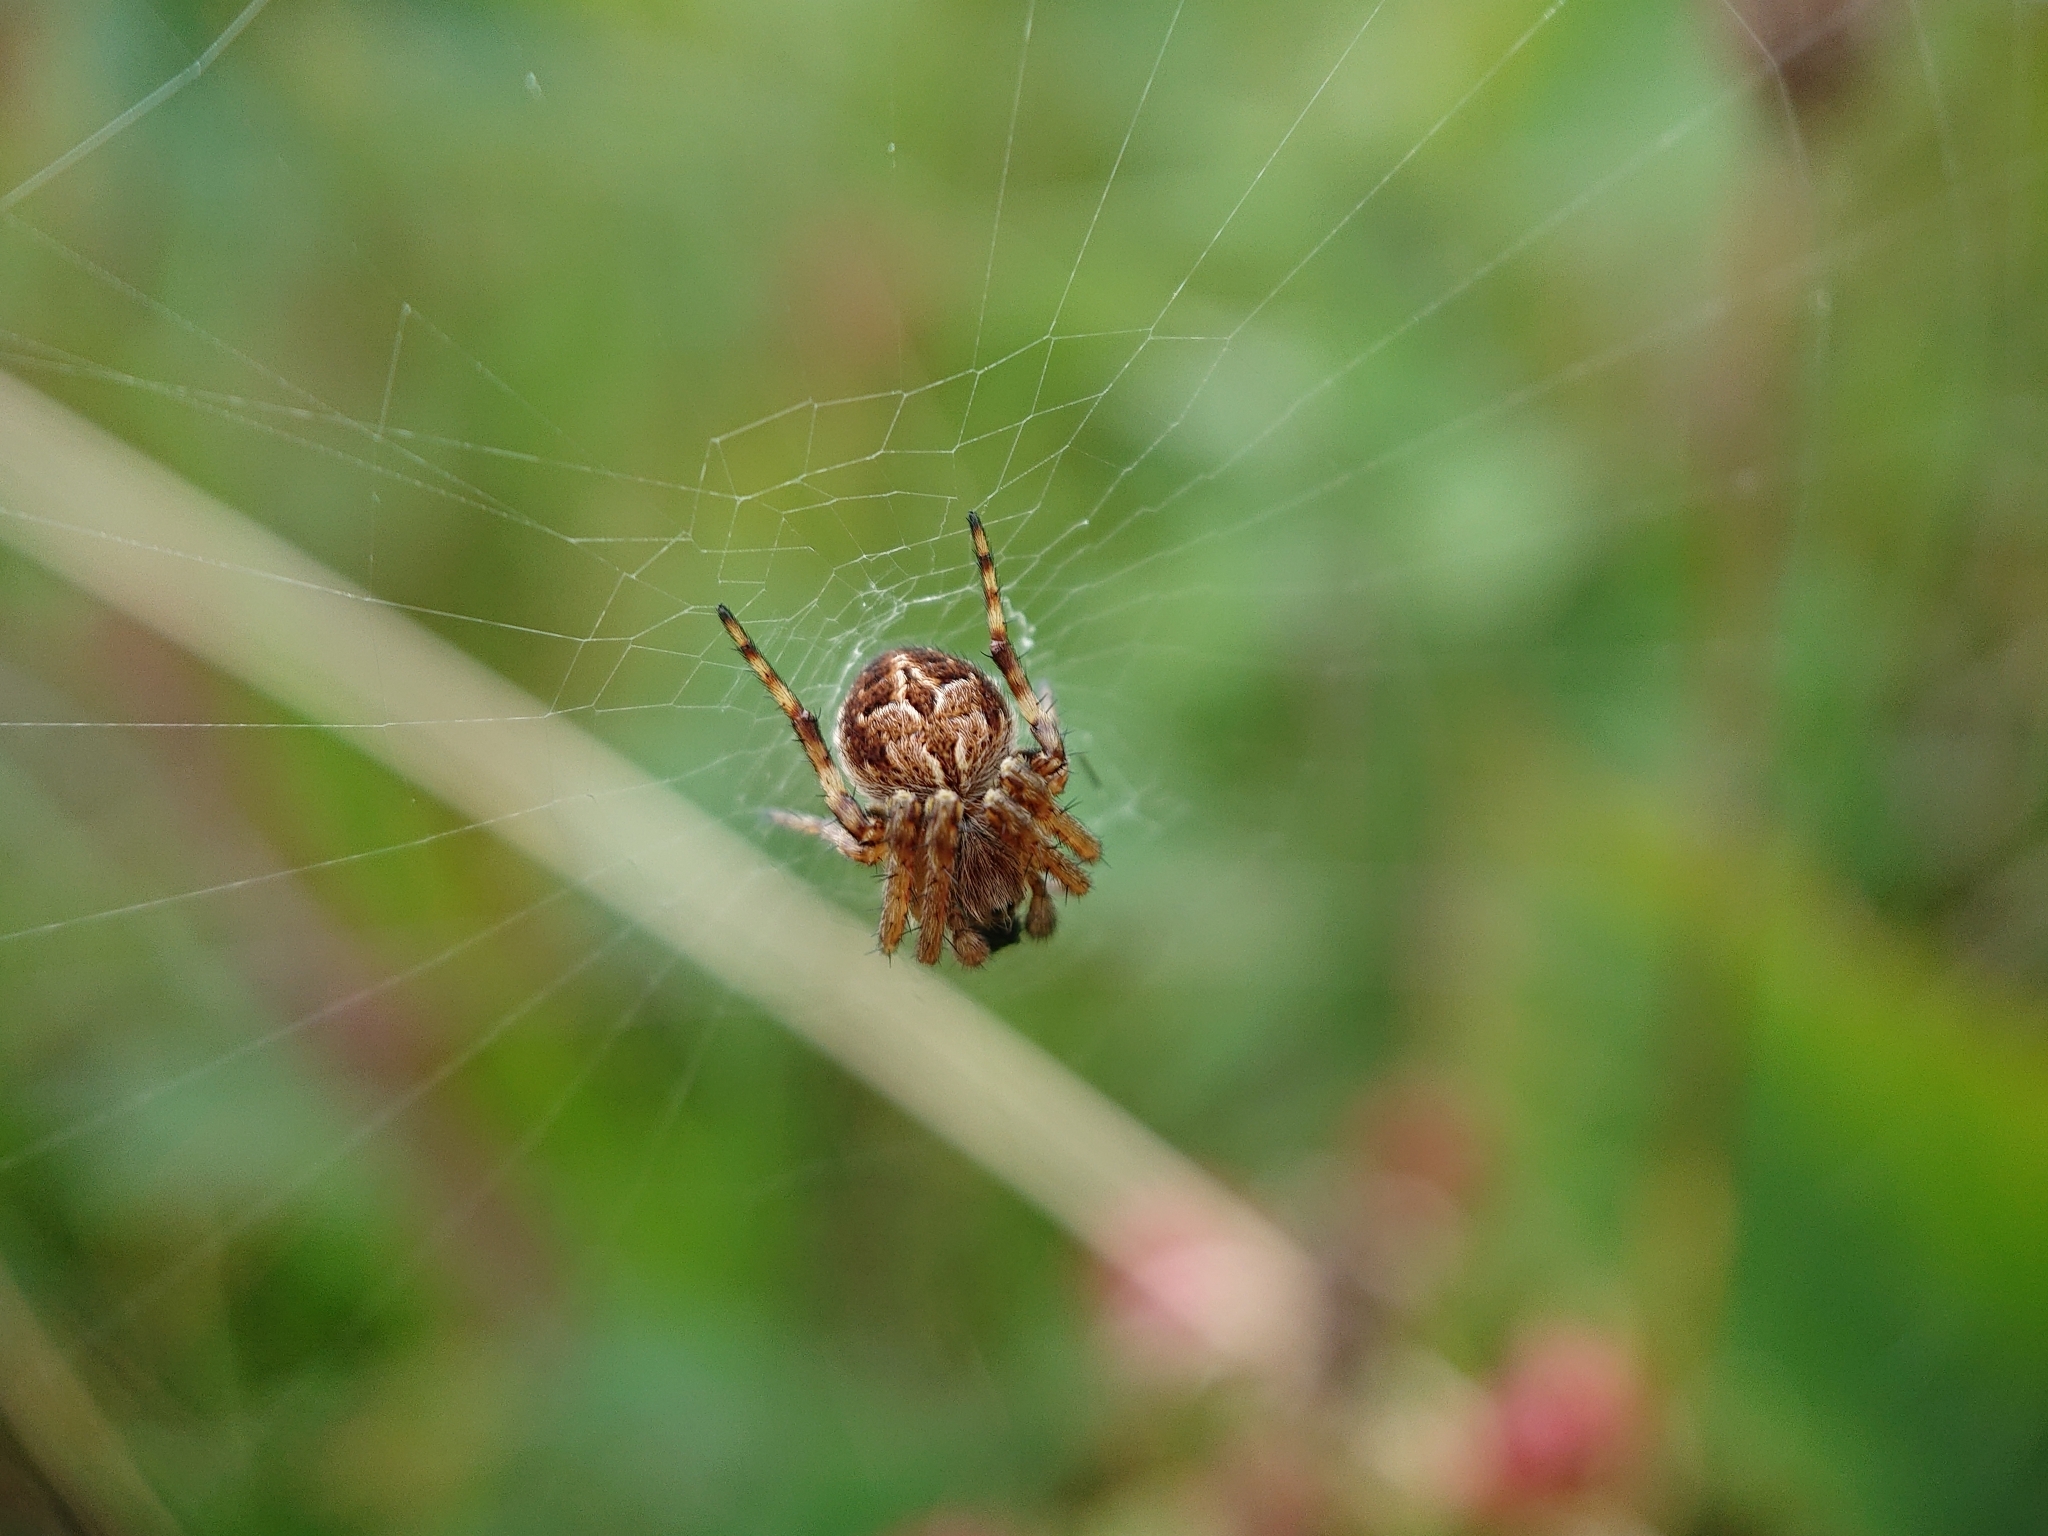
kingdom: Animalia
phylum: Arthropoda
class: Arachnida
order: Araneae
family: Araneidae
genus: Agalenatea
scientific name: Agalenatea redii
